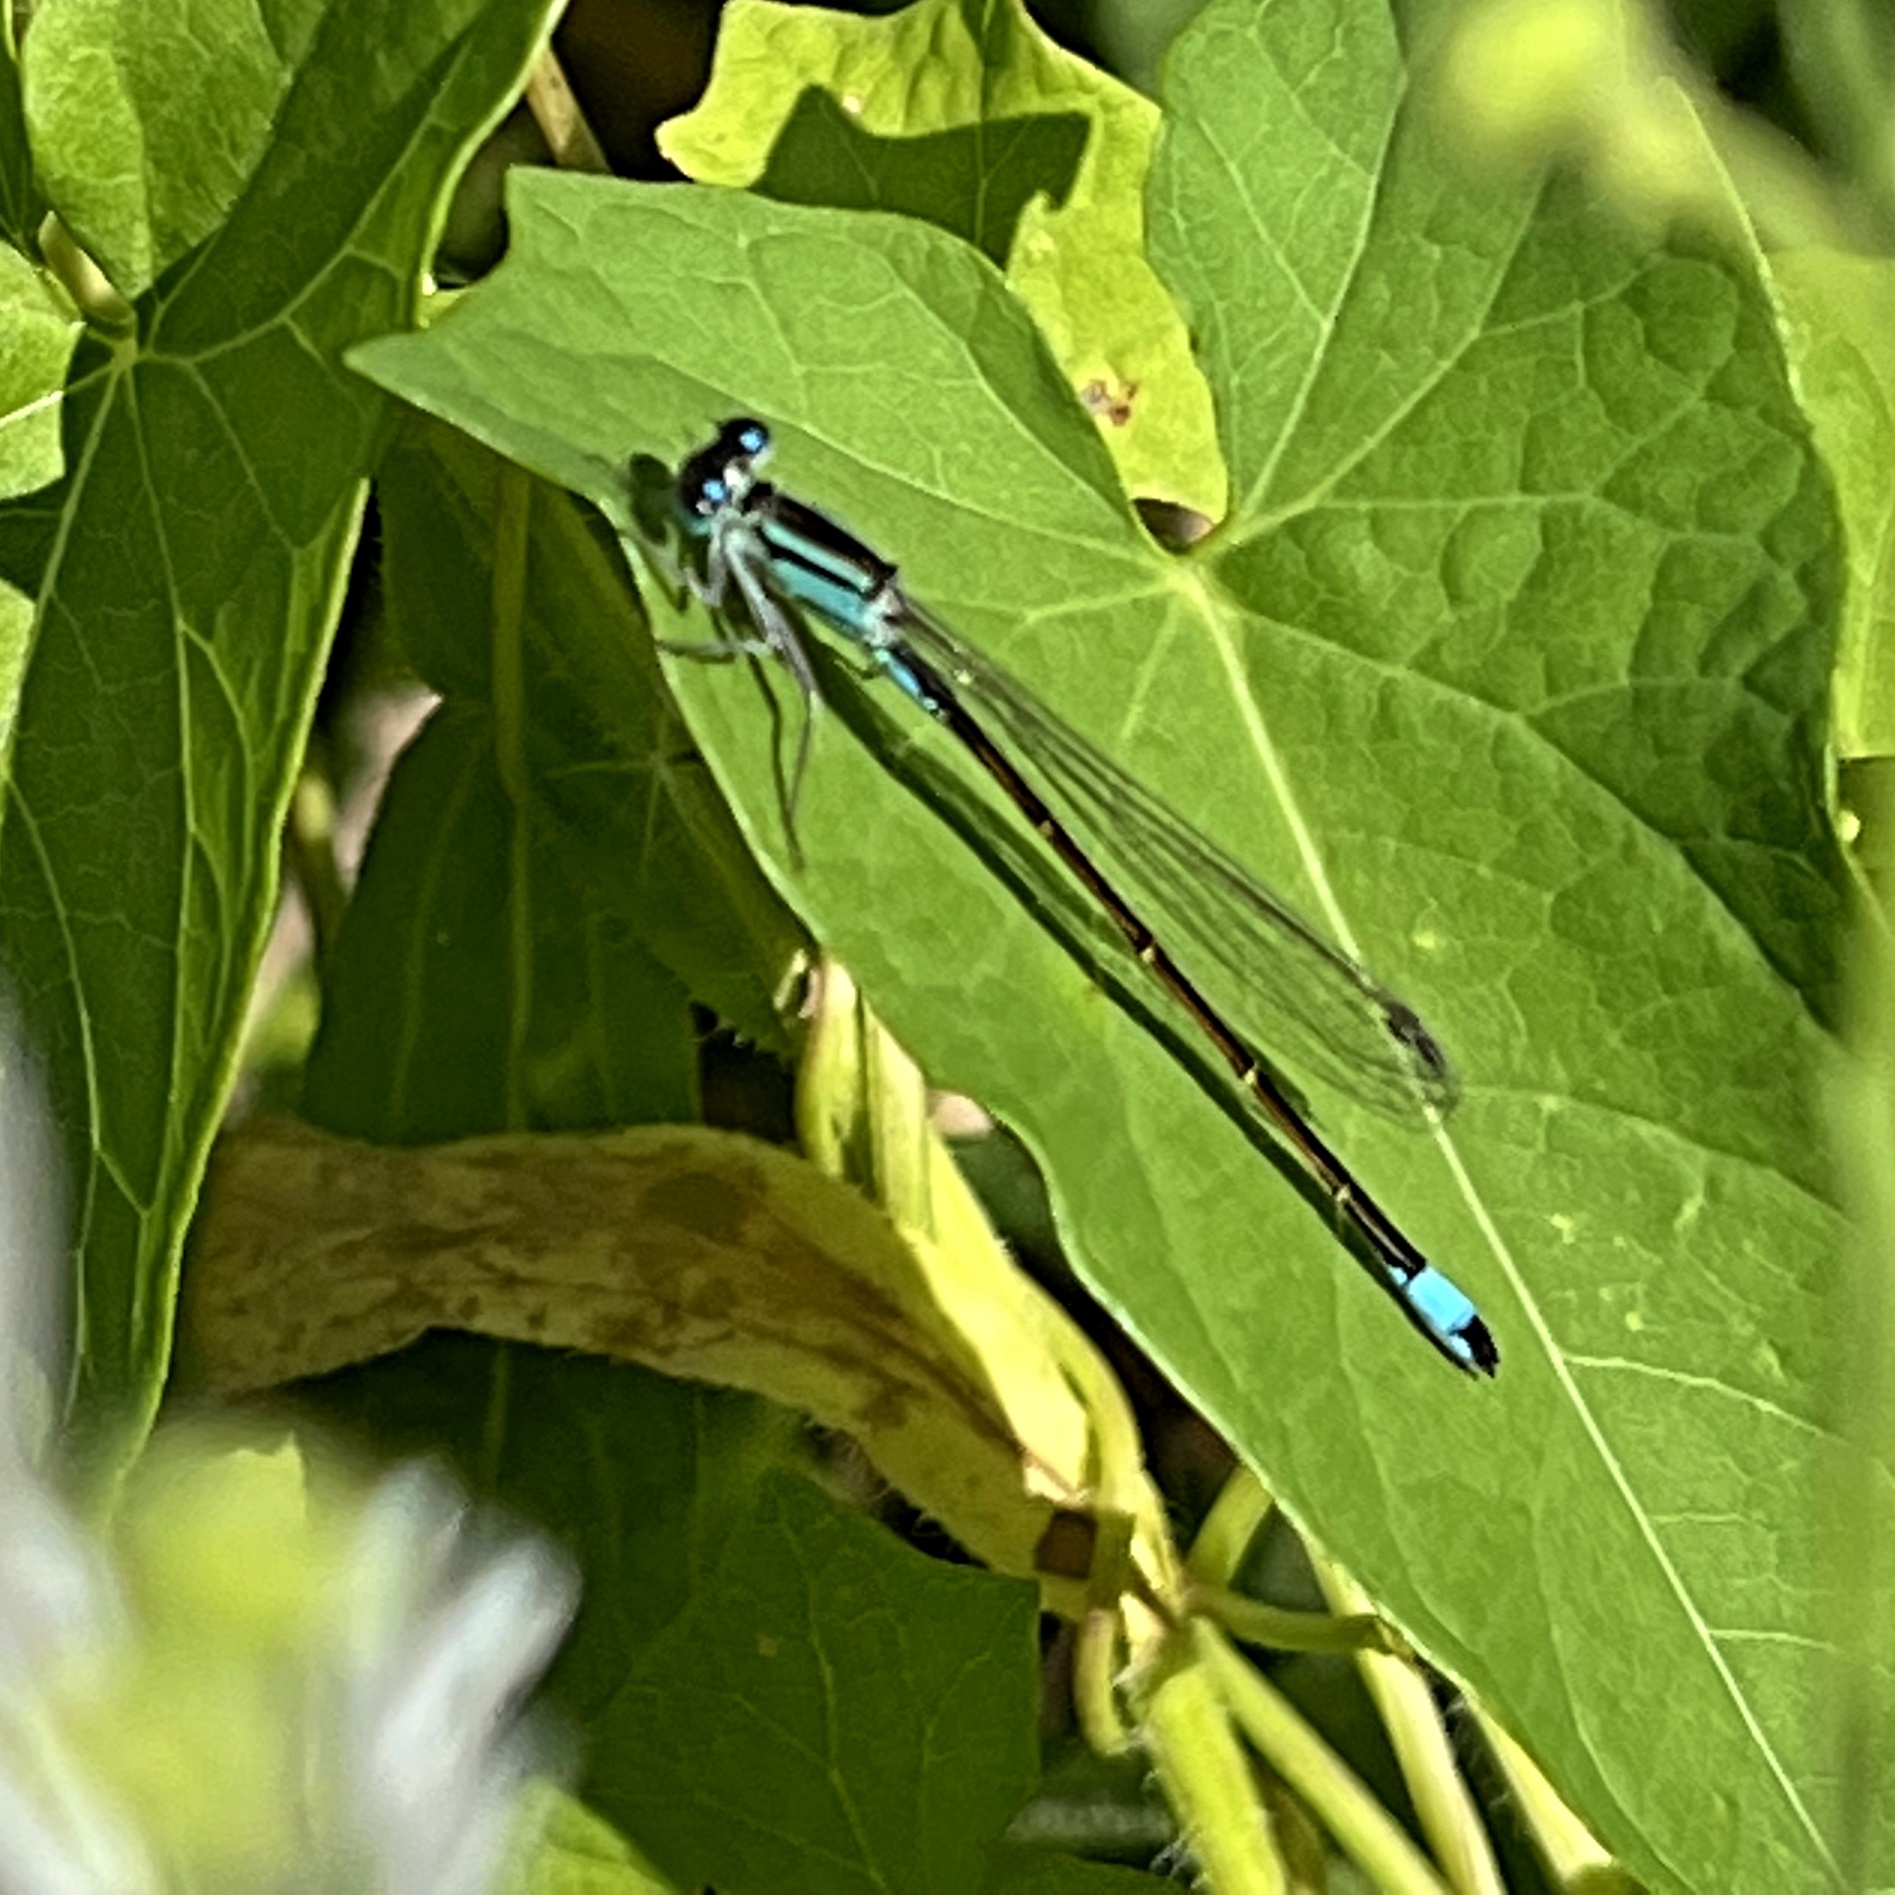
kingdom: Animalia
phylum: Arthropoda
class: Insecta
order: Odonata
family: Coenagrionidae
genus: Ischnura
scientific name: Ischnura elegans
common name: Blue-tailed damselfly
